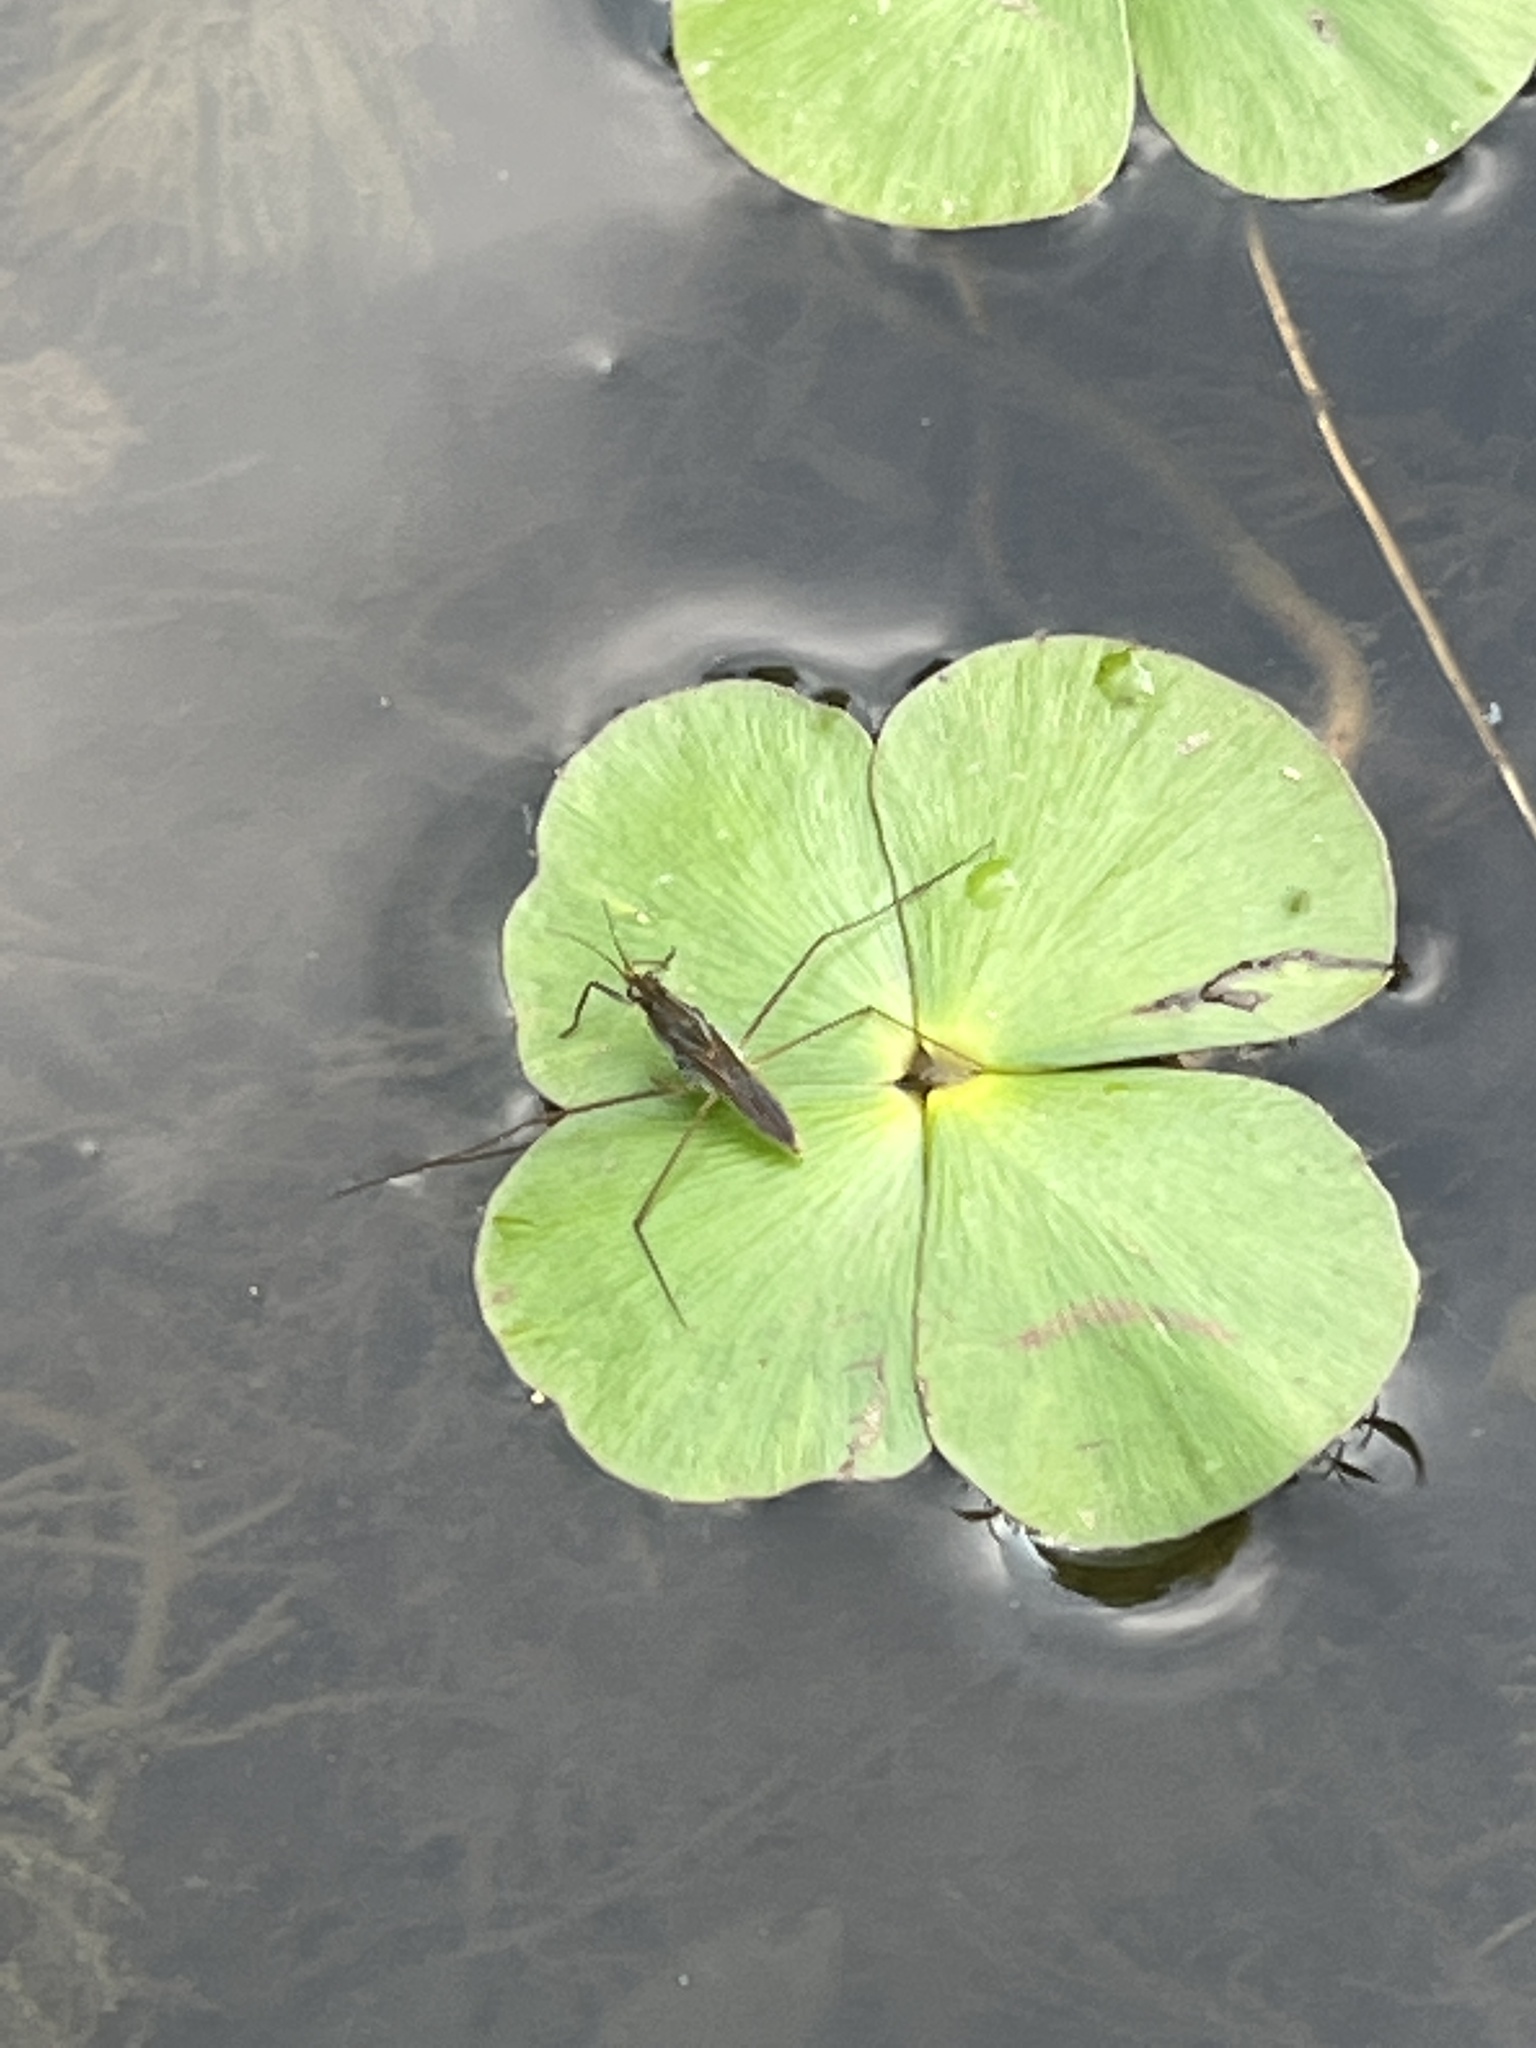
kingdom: Animalia
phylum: Arthropoda
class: Insecta
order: Hemiptera
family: Gerridae
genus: Gerris
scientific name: Gerris
